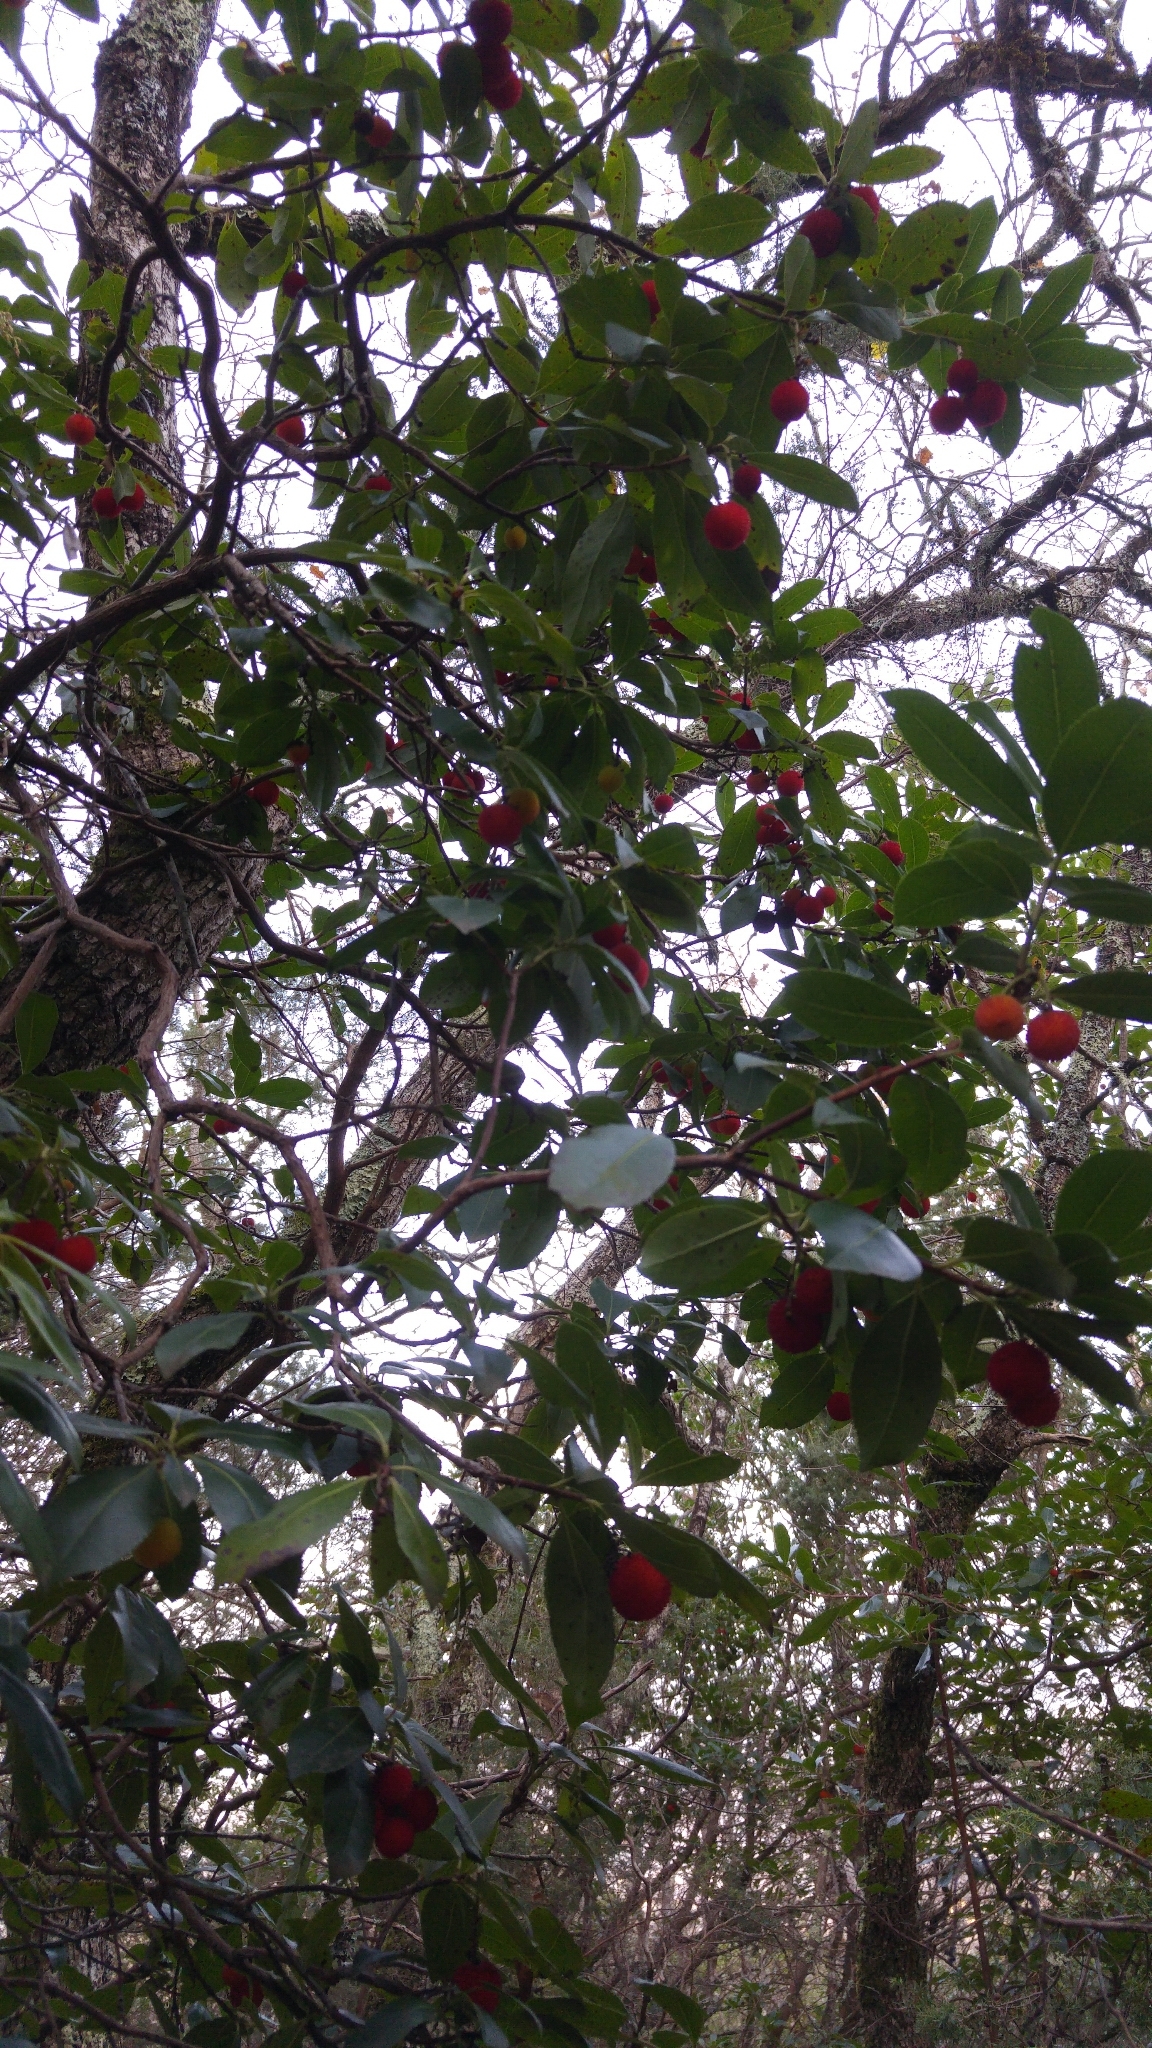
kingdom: Plantae
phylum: Tracheophyta
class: Magnoliopsida
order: Ericales
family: Ericaceae
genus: Arbutus
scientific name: Arbutus unedo
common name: Strawberry-tree
